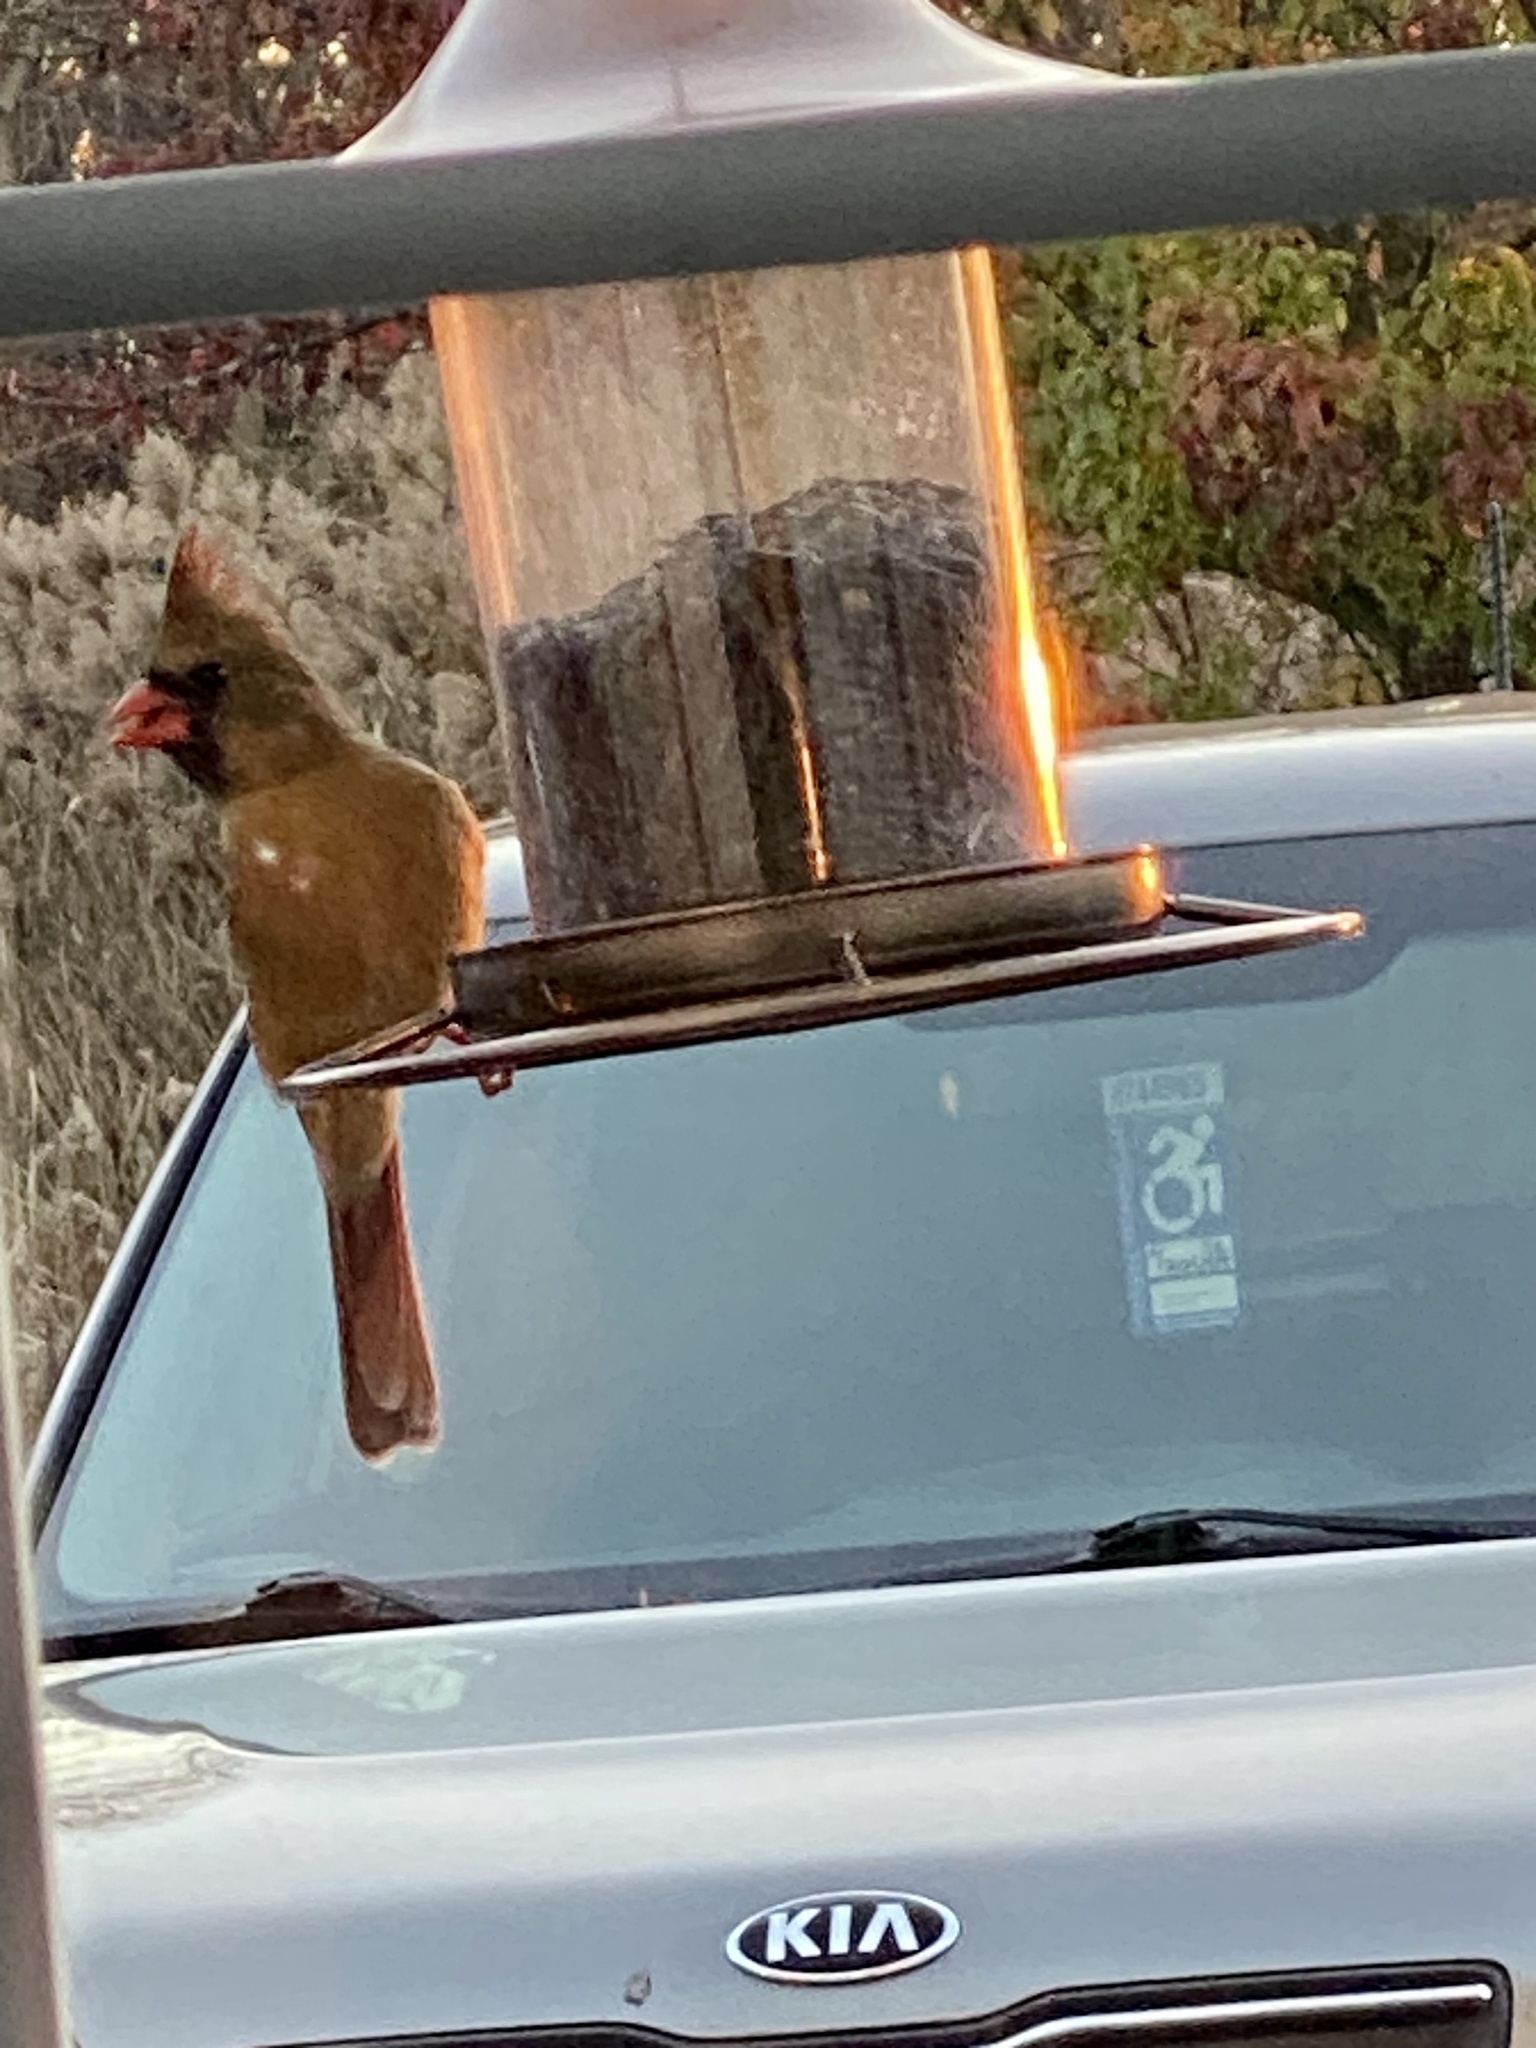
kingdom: Animalia
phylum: Chordata
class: Aves
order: Passeriformes
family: Cardinalidae
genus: Cardinalis
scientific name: Cardinalis cardinalis
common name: Northern cardinal
